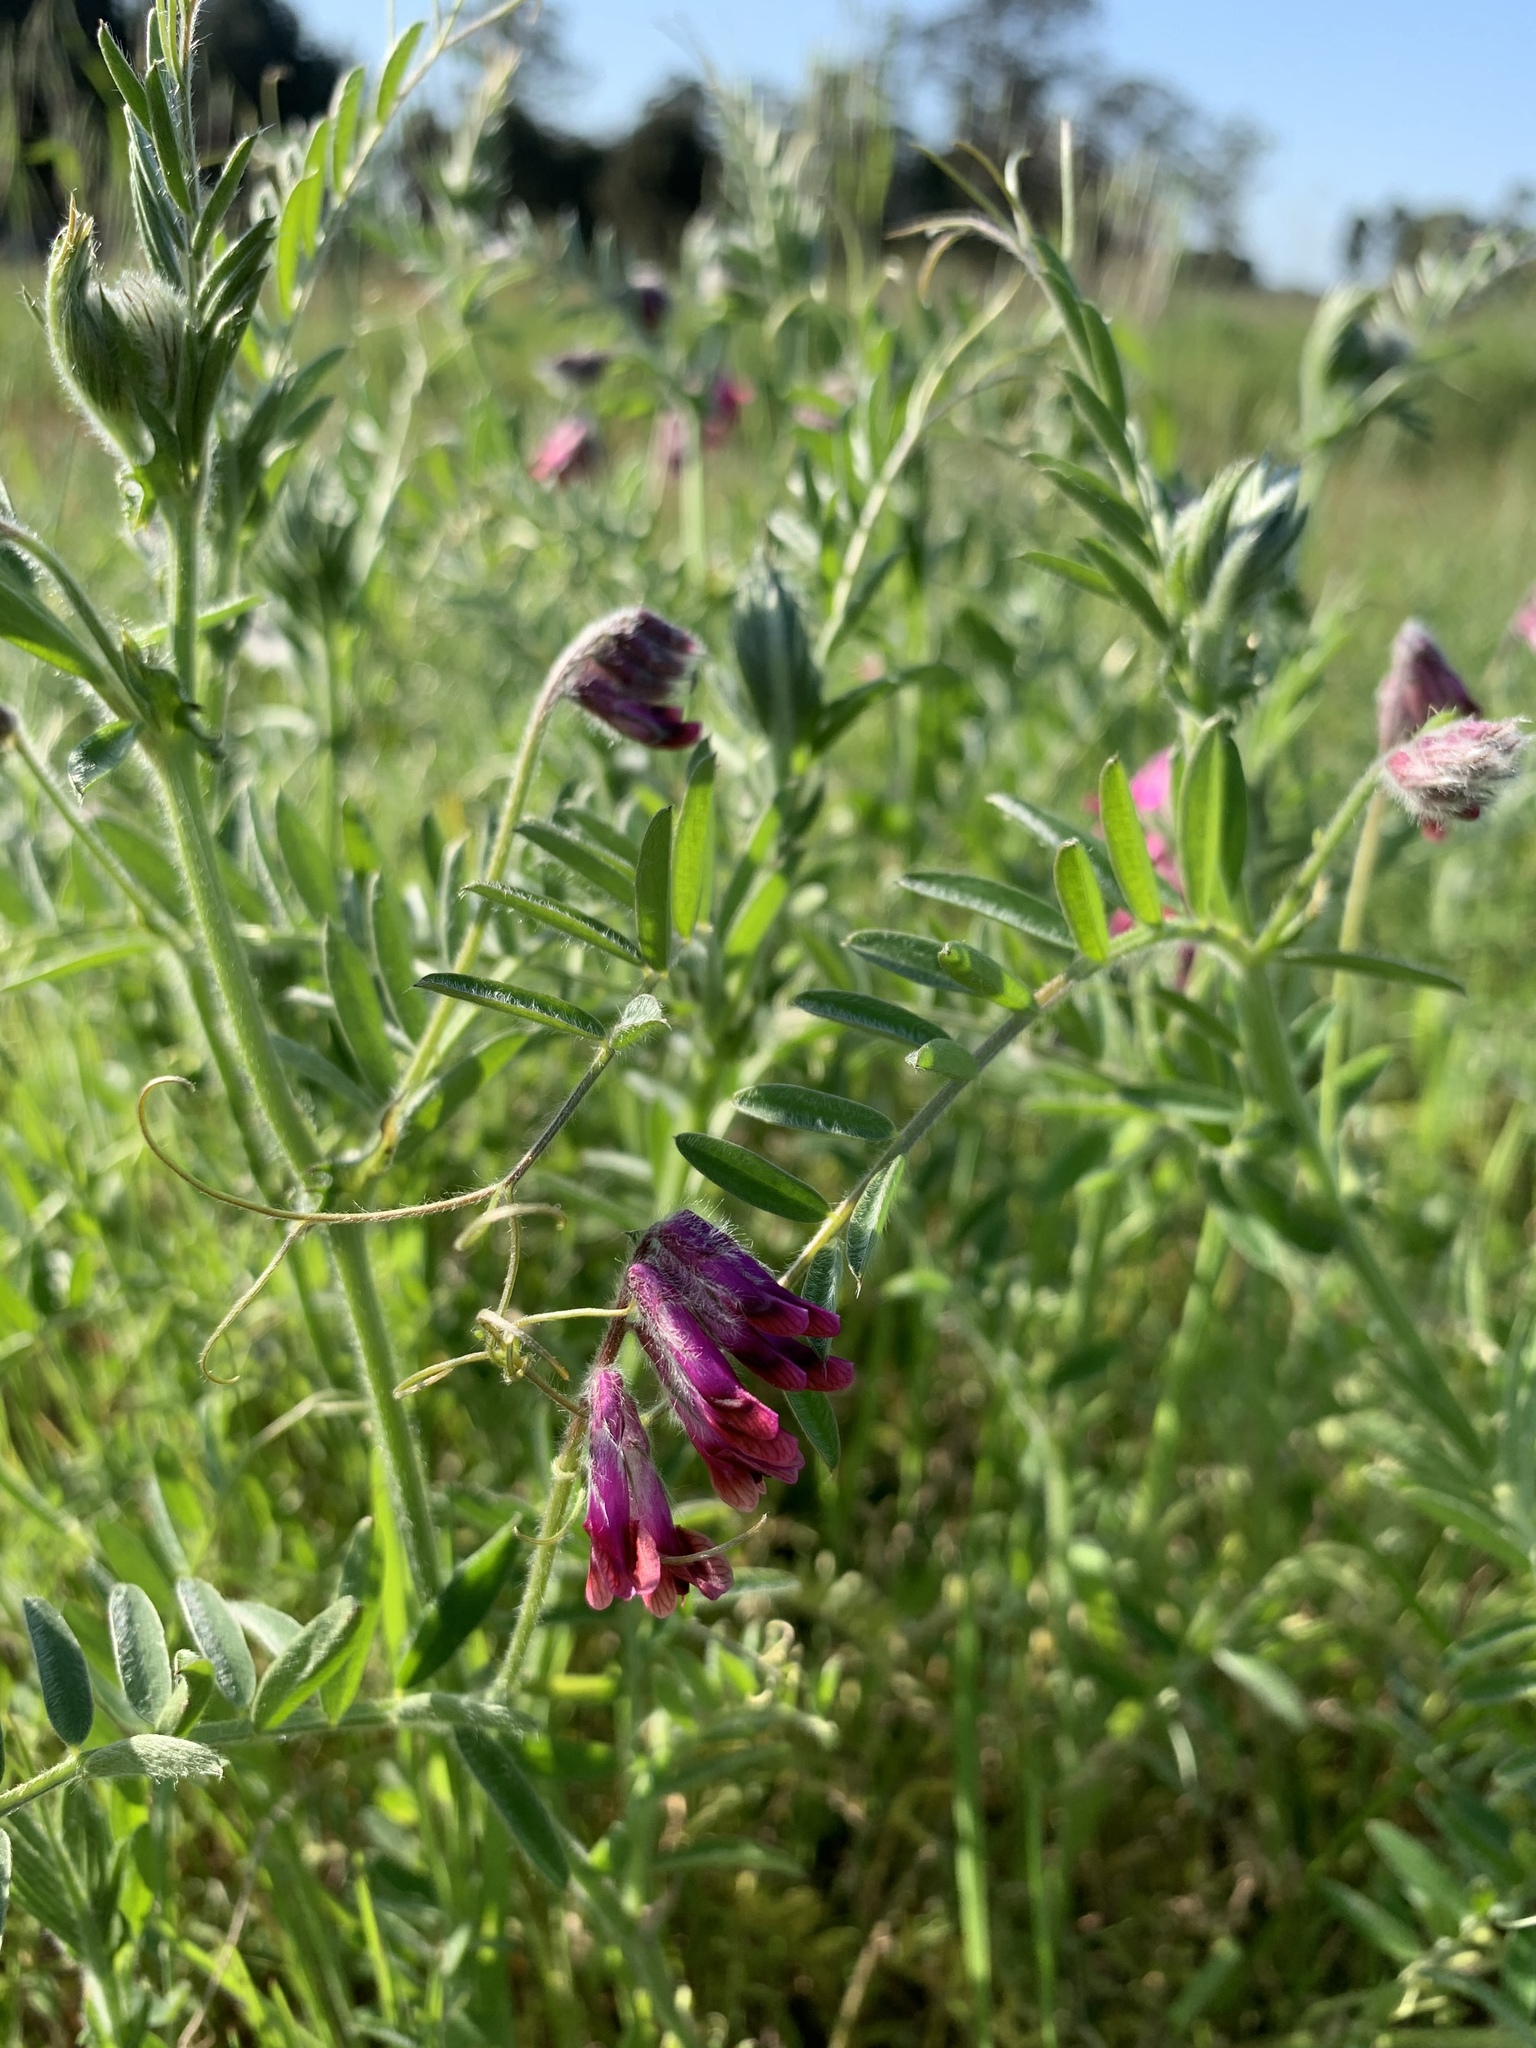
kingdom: Plantae
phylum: Tracheophyta
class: Magnoliopsida
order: Fabales
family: Fabaceae
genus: Vicia
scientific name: Vicia benghalensis
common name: Purple vetch
